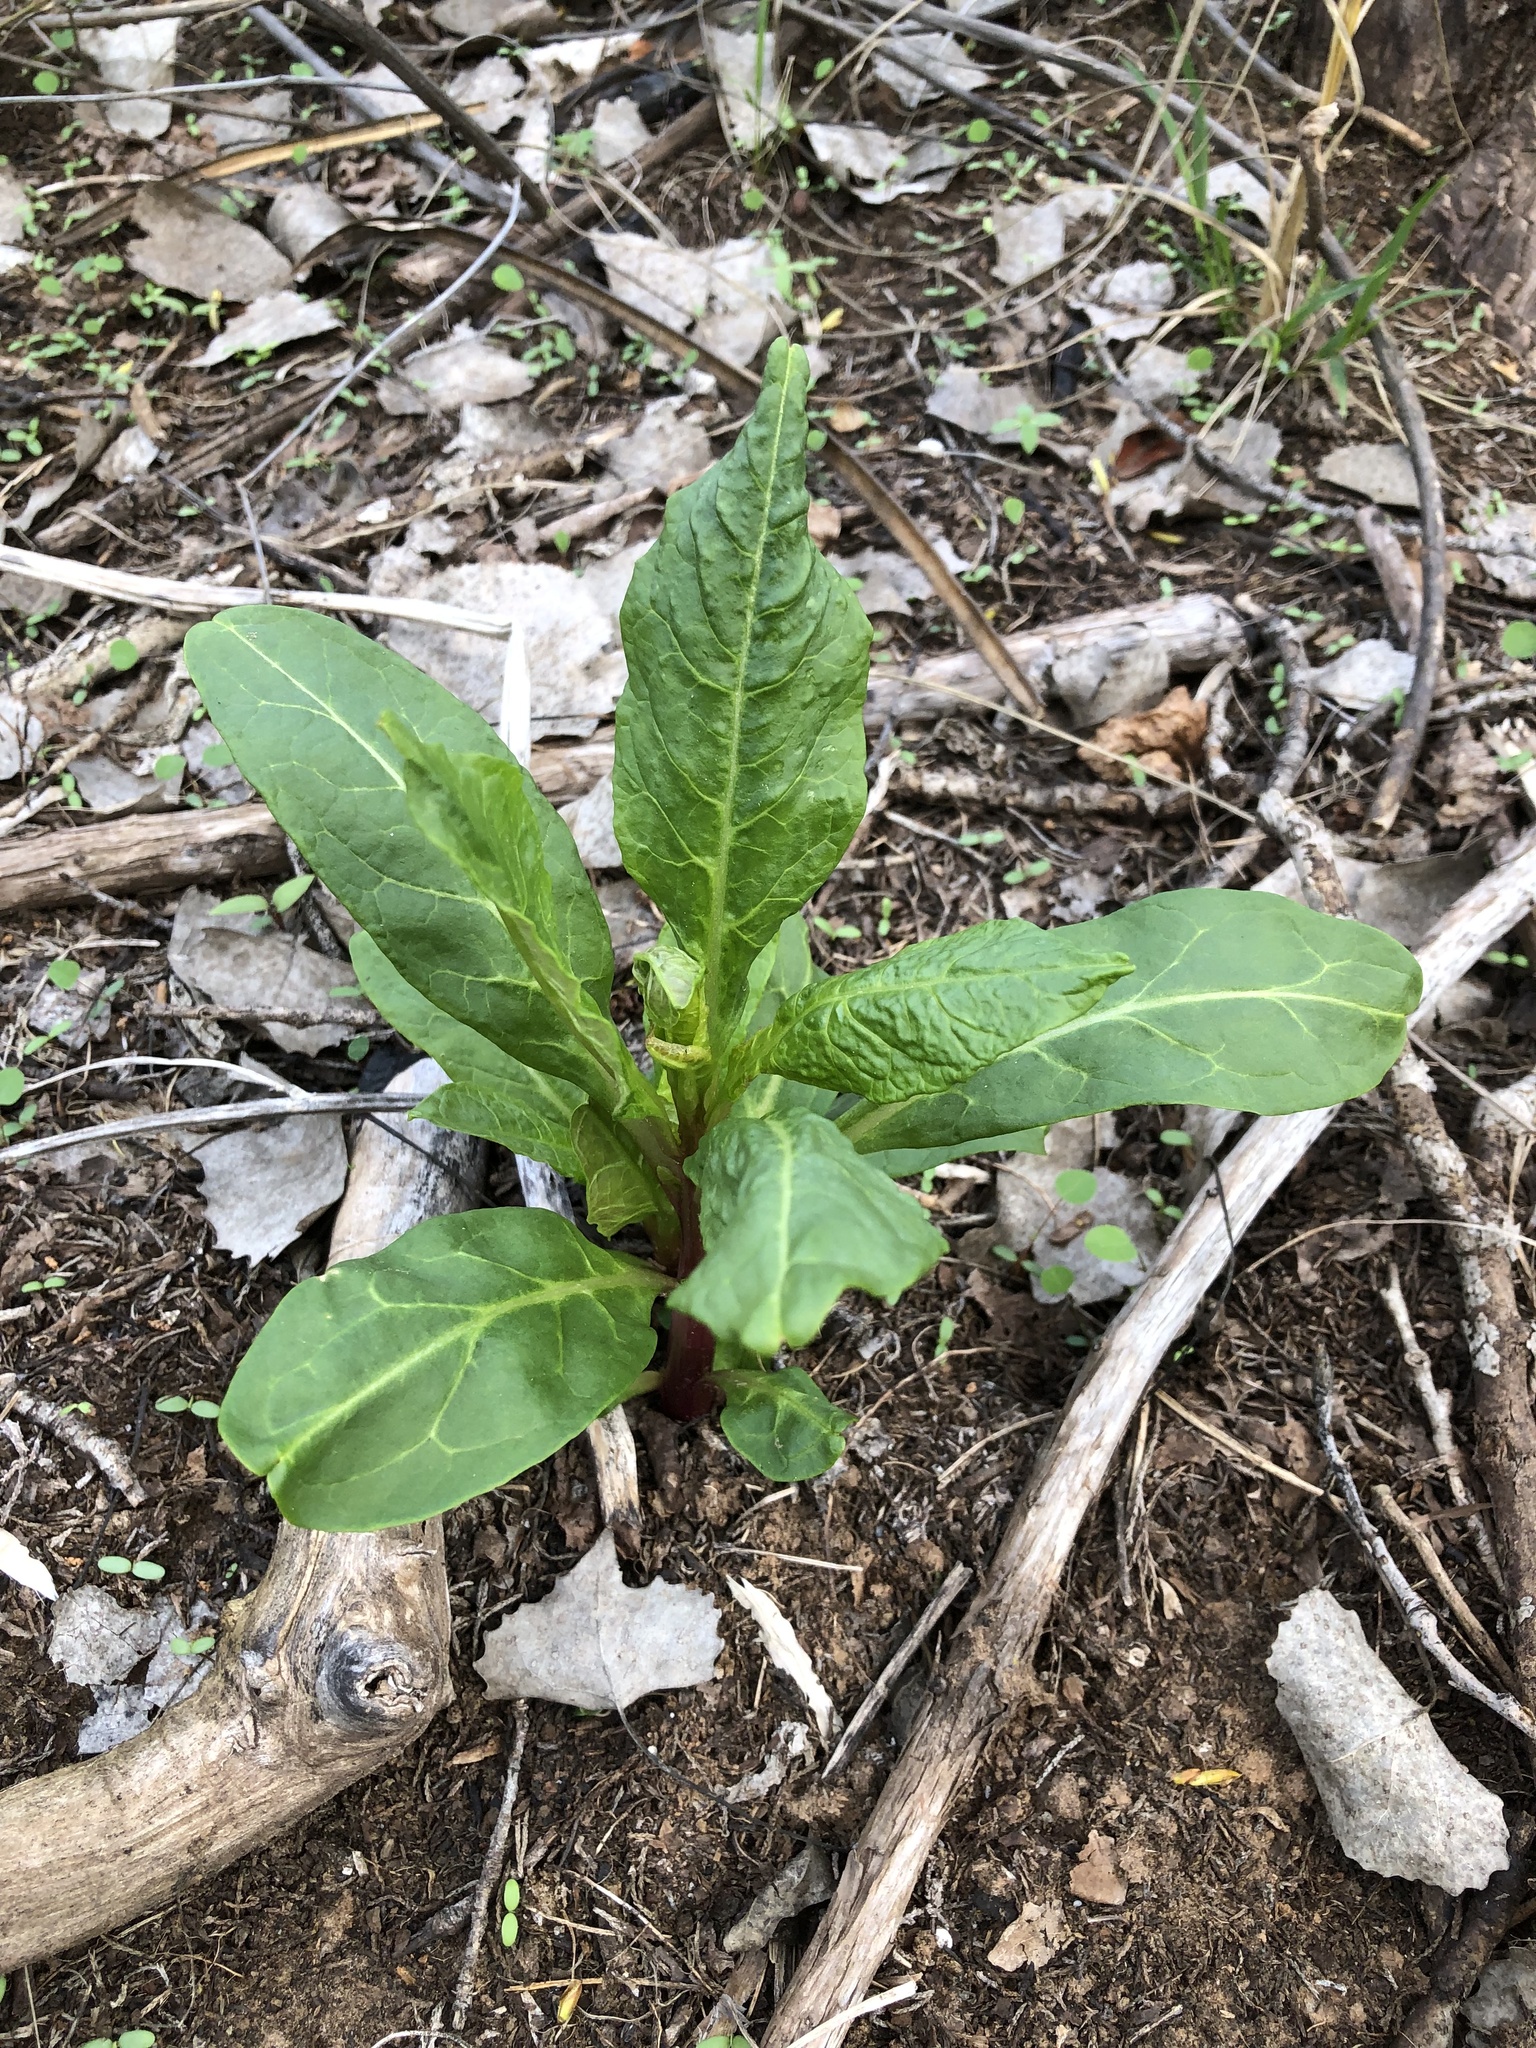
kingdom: Plantae
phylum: Tracheophyta
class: Magnoliopsida
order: Caryophyllales
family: Phytolaccaceae
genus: Phytolacca
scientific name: Phytolacca americana
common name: American pokeweed
